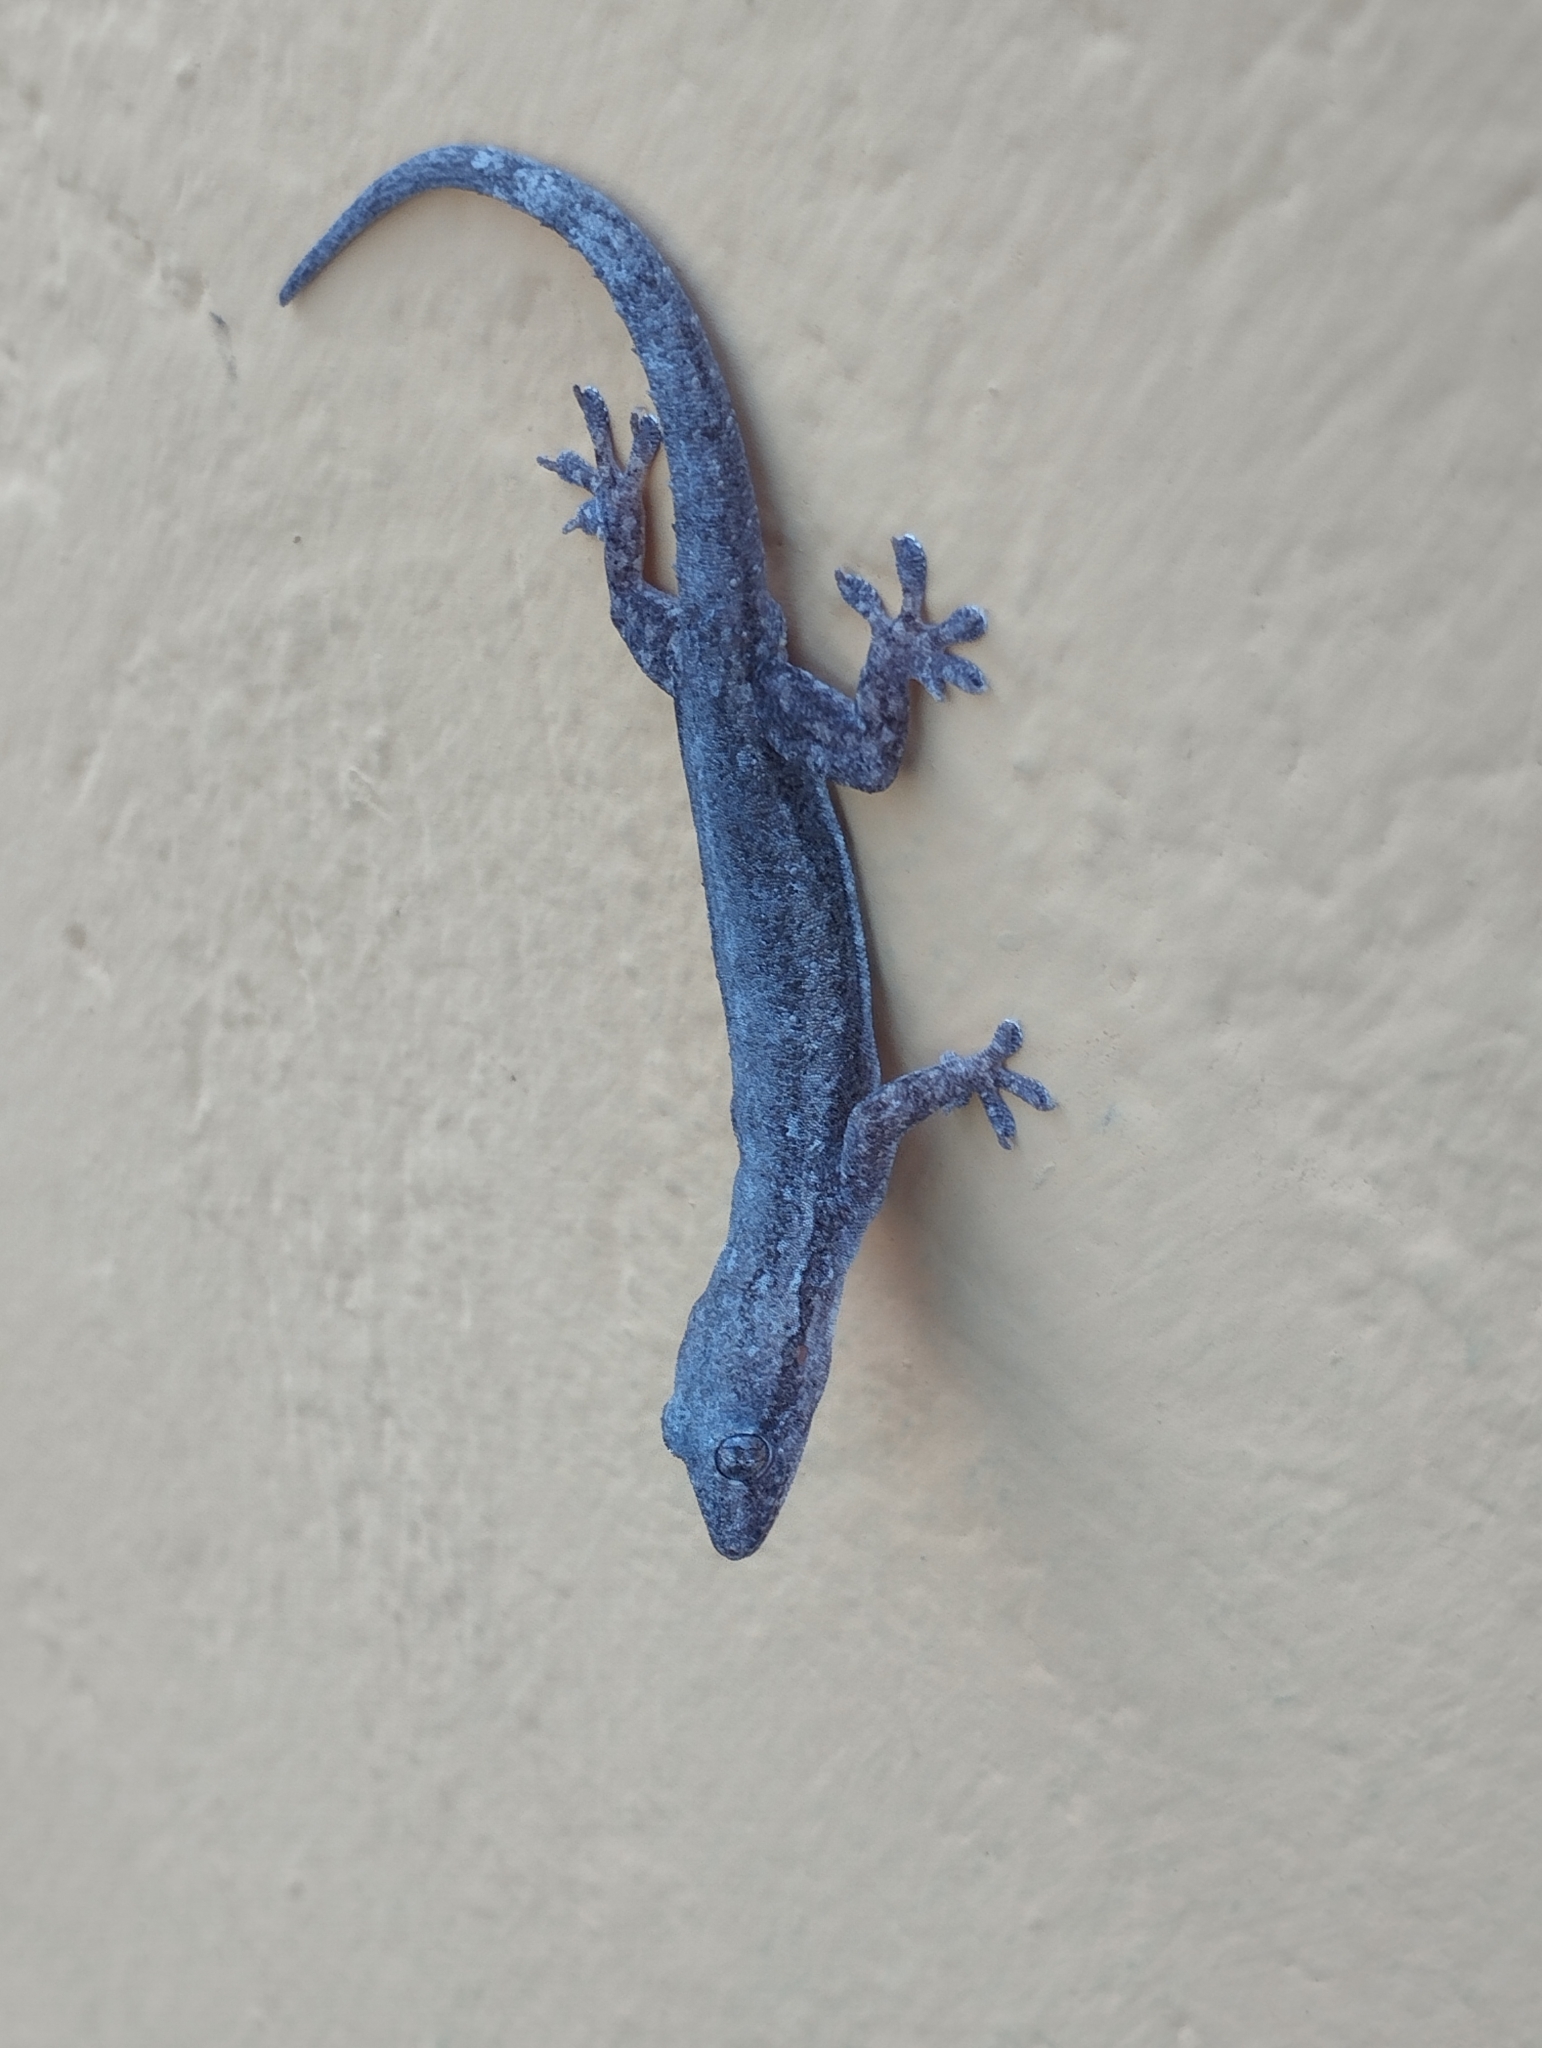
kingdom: Animalia
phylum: Chordata
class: Squamata
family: Gekkonidae
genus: Hemidactylus
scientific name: Hemidactylus frenatus
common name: Common house gecko
